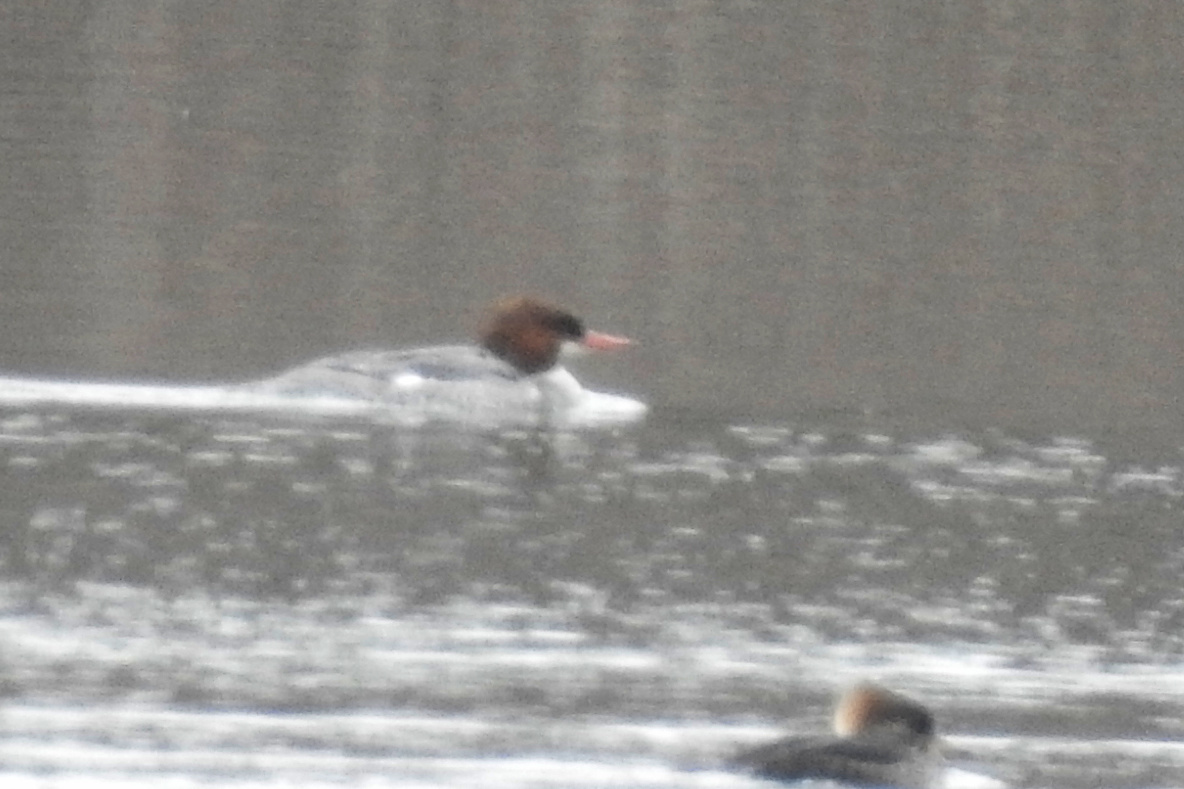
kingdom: Animalia
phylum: Chordata
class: Aves
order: Anseriformes
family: Anatidae
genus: Mergus
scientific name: Mergus merganser
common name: Common merganser
